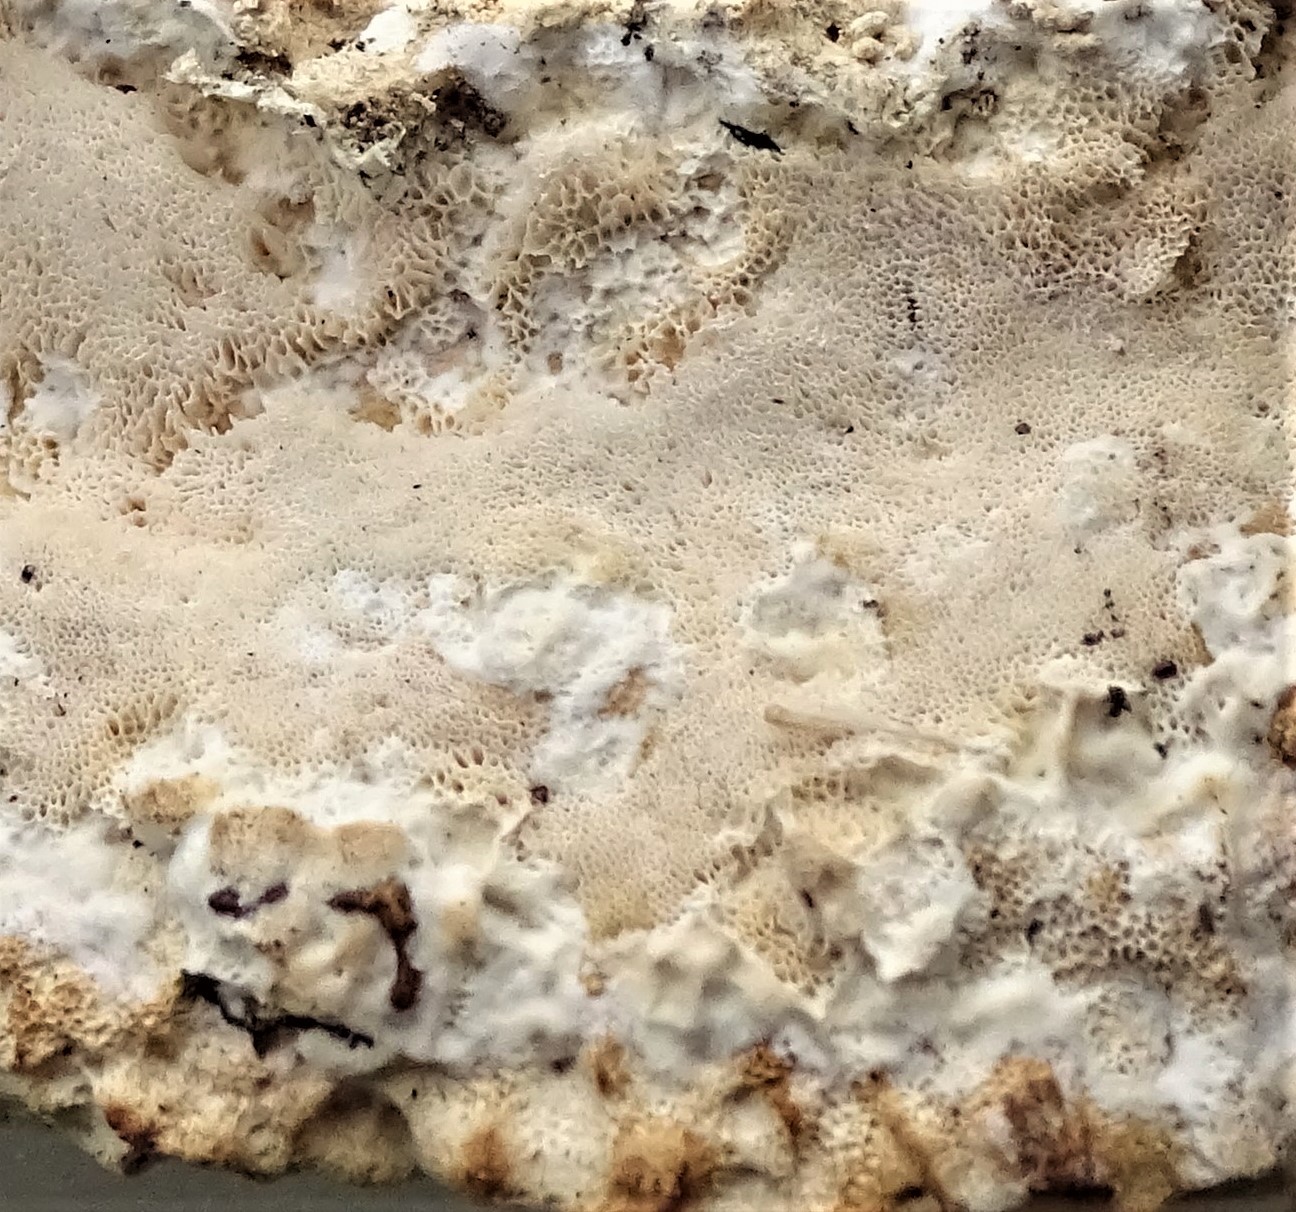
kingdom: Fungi
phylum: Basidiomycota
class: Agaricomycetes
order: Hymenochaetales
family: Oxyporaceae
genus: Oxyporus
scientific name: Oxyporus populinus
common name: Poplar bracket
